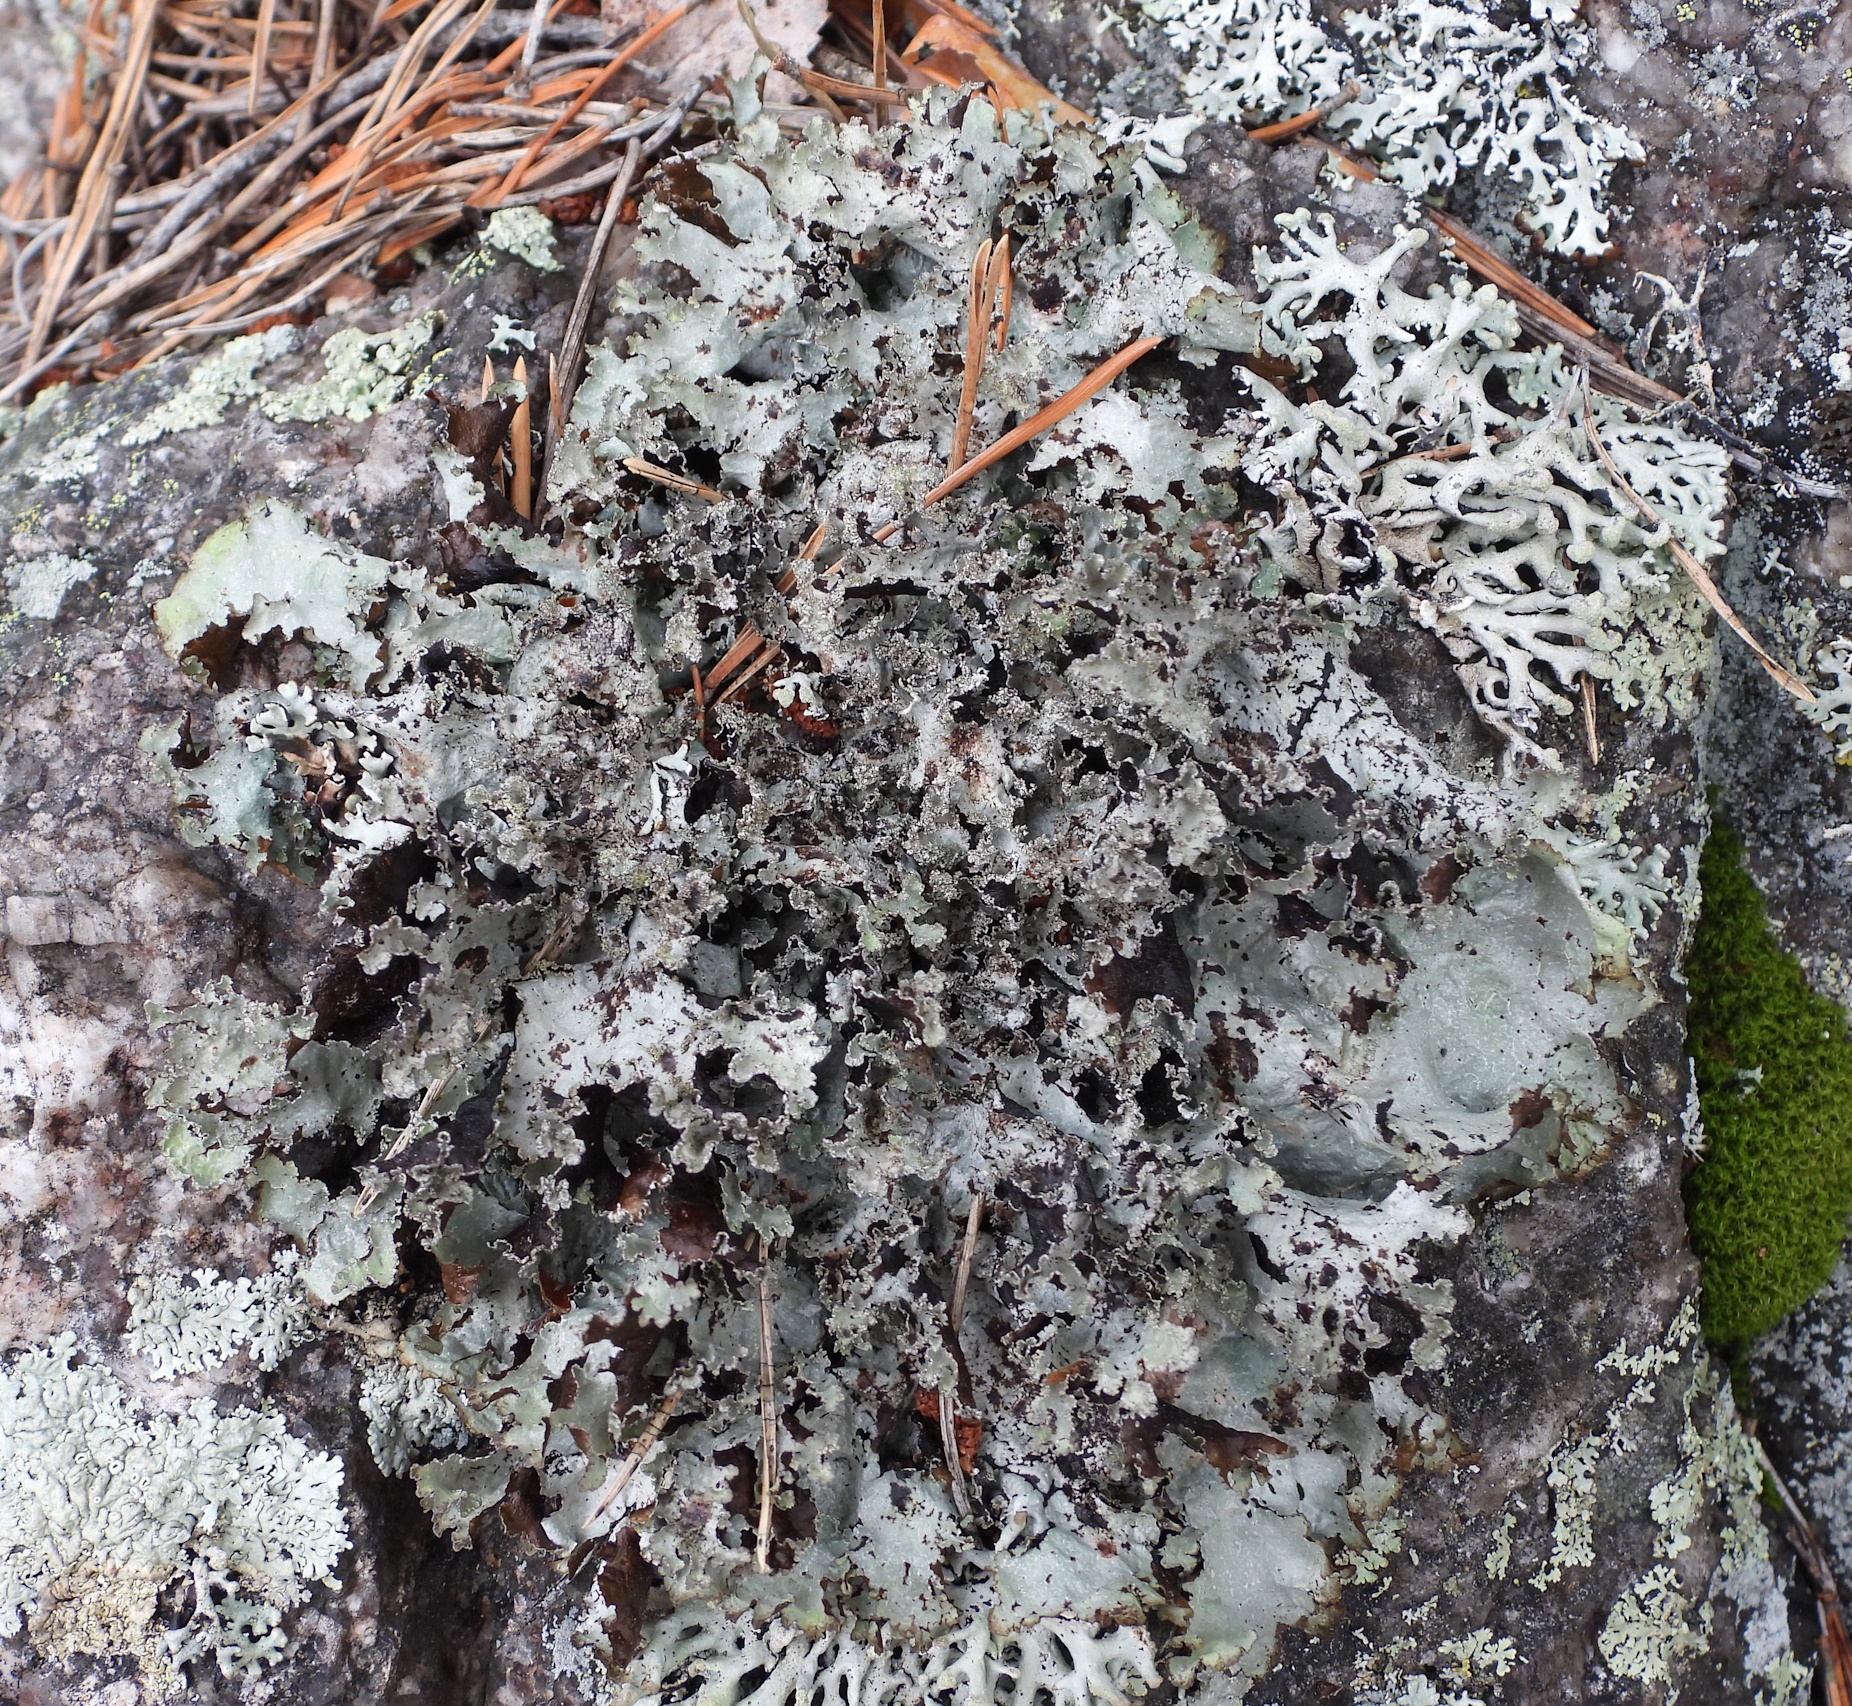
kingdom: Fungi
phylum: Ascomycota
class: Lecanoromycetes
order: Lecanorales
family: Parmeliaceae
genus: Platismatia
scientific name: Platismatia glauca
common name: Varied rag lichen
